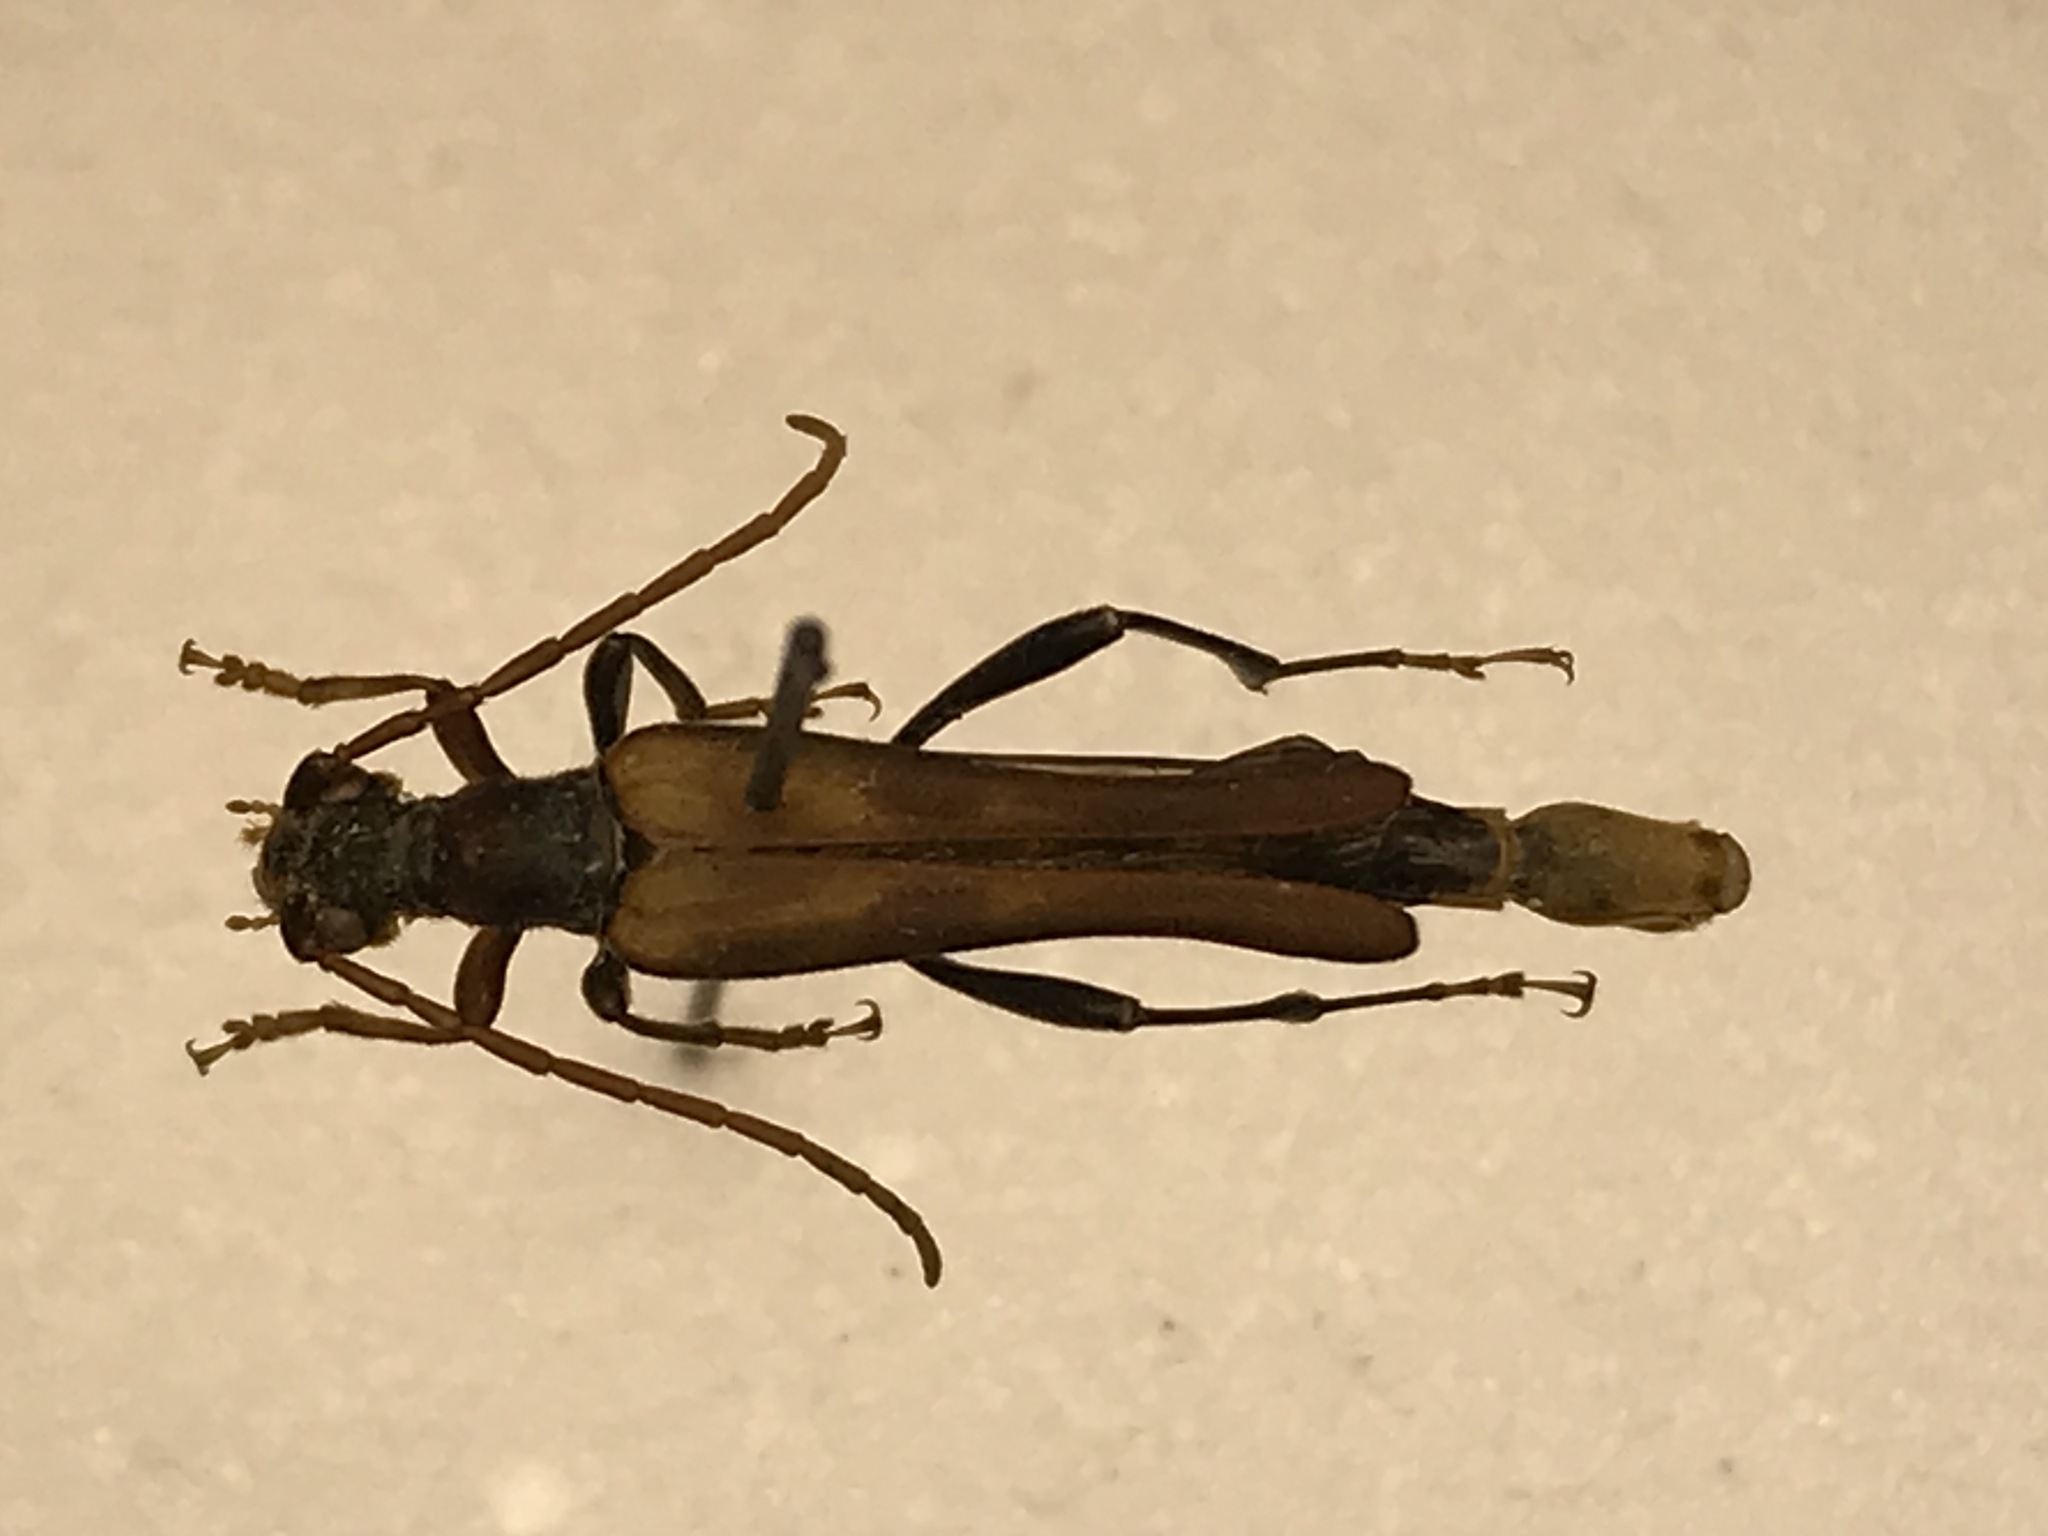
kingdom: Animalia
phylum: Arthropoda
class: Insecta
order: Coleoptera
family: Cerambycidae
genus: Bellamira
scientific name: Bellamira scalaris
